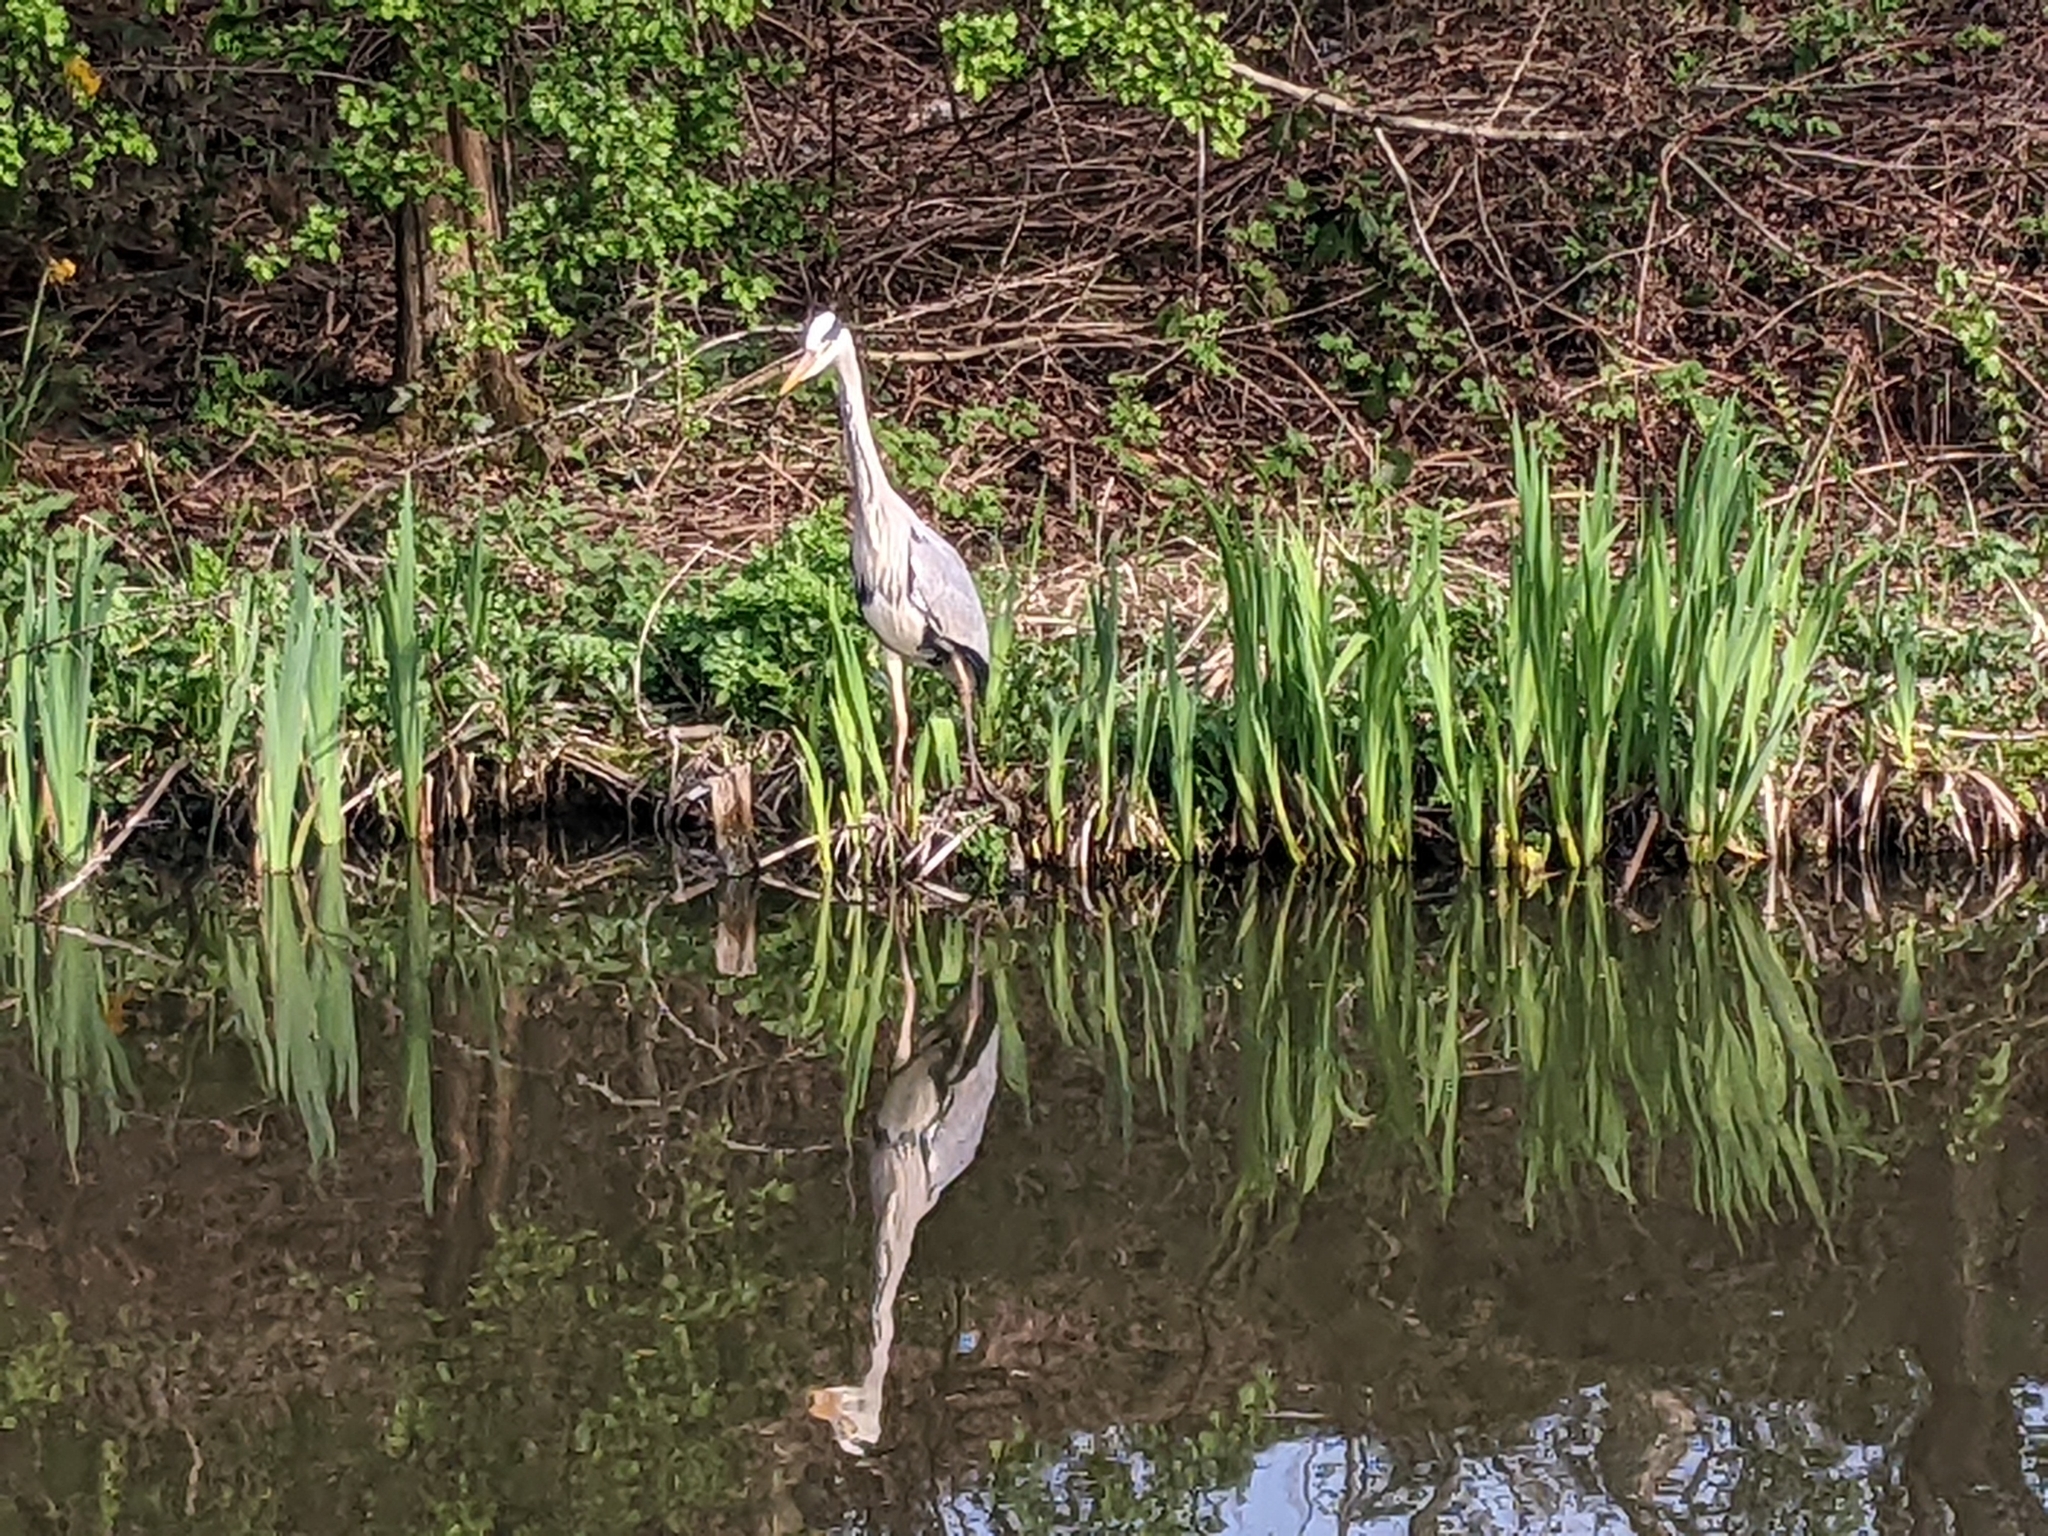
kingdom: Animalia
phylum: Chordata
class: Aves
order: Pelecaniformes
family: Ardeidae
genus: Ardea
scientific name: Ardea cinerea
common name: Grey heron
